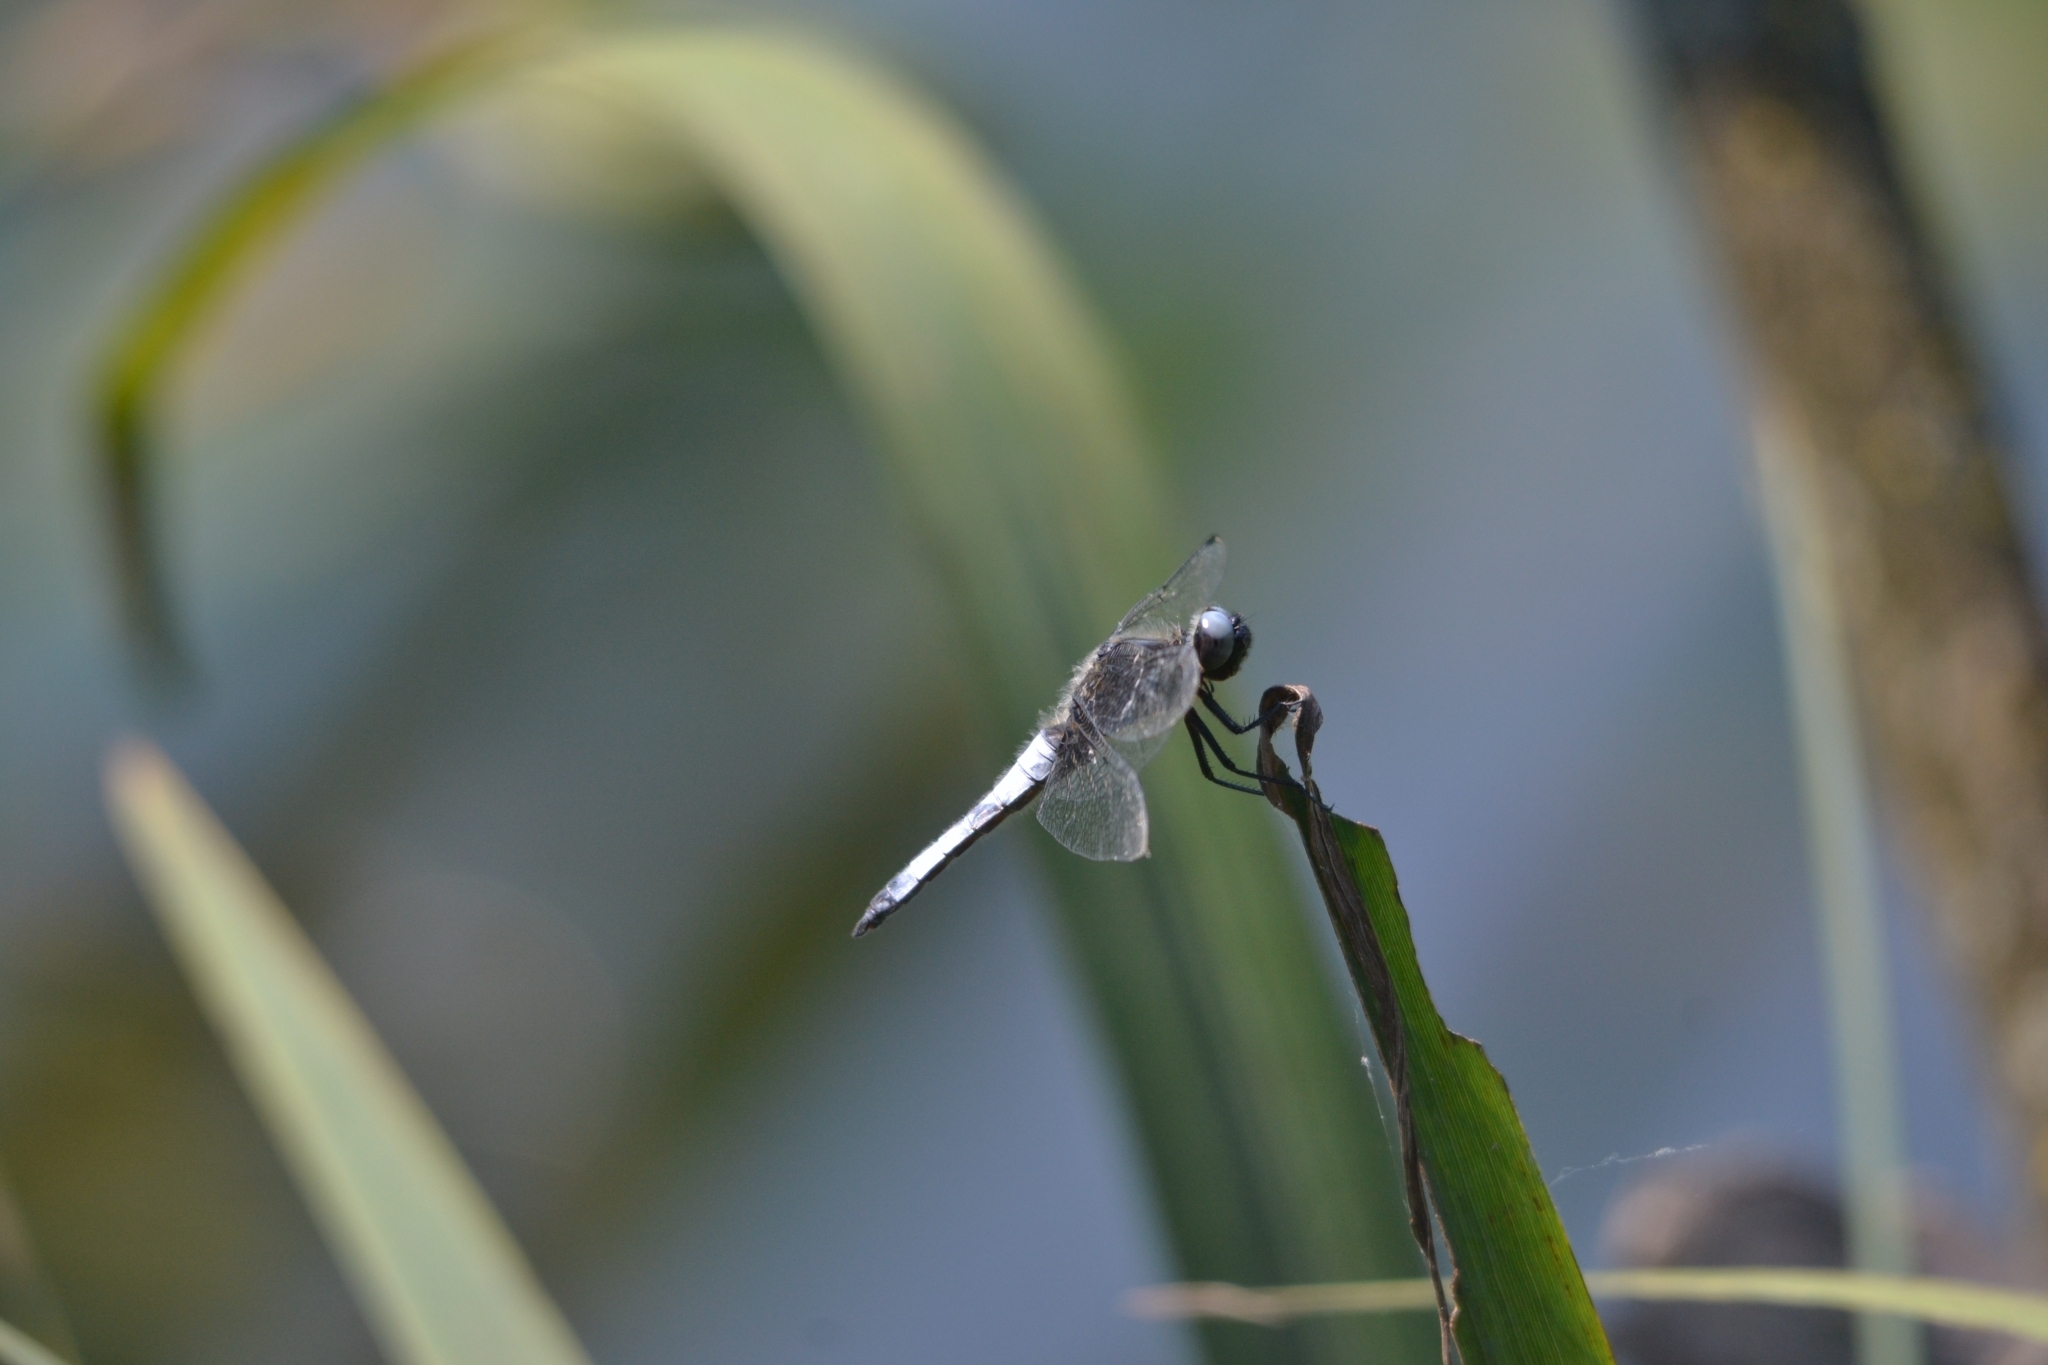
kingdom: Animalia
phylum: Arthropoda
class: Insecta
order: Odonata
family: Libellulidae
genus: Libellula
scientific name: Libellula fulva
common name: Blue chaser
